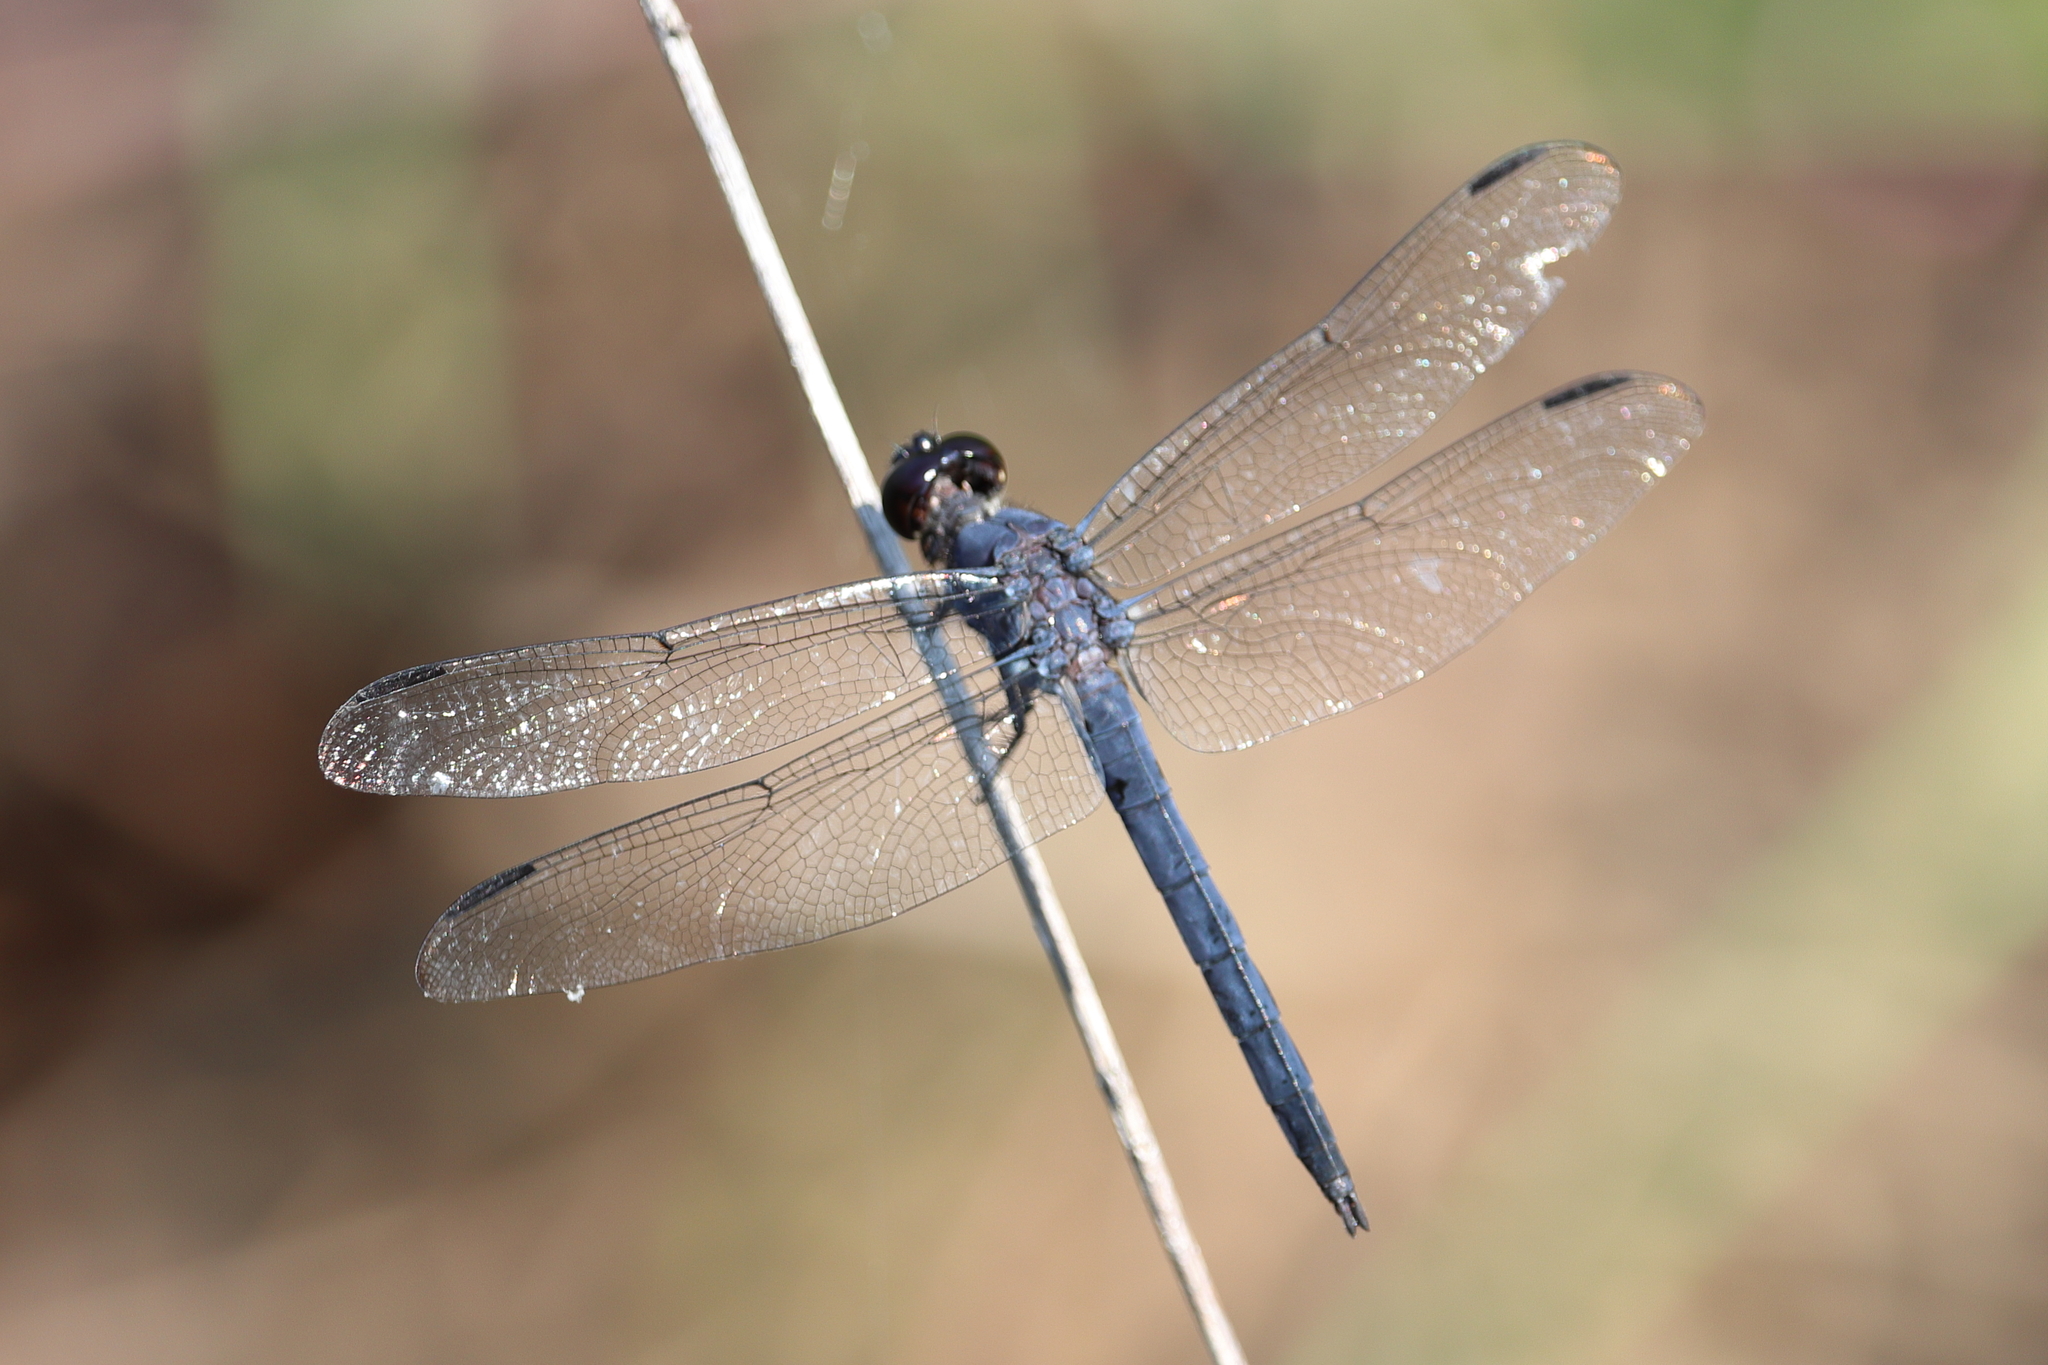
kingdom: Animalia
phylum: Arthropoda
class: Insecta
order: Odonata
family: Libellulidae
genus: Libellula
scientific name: Libellula incesta
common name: Slaty skimmer
